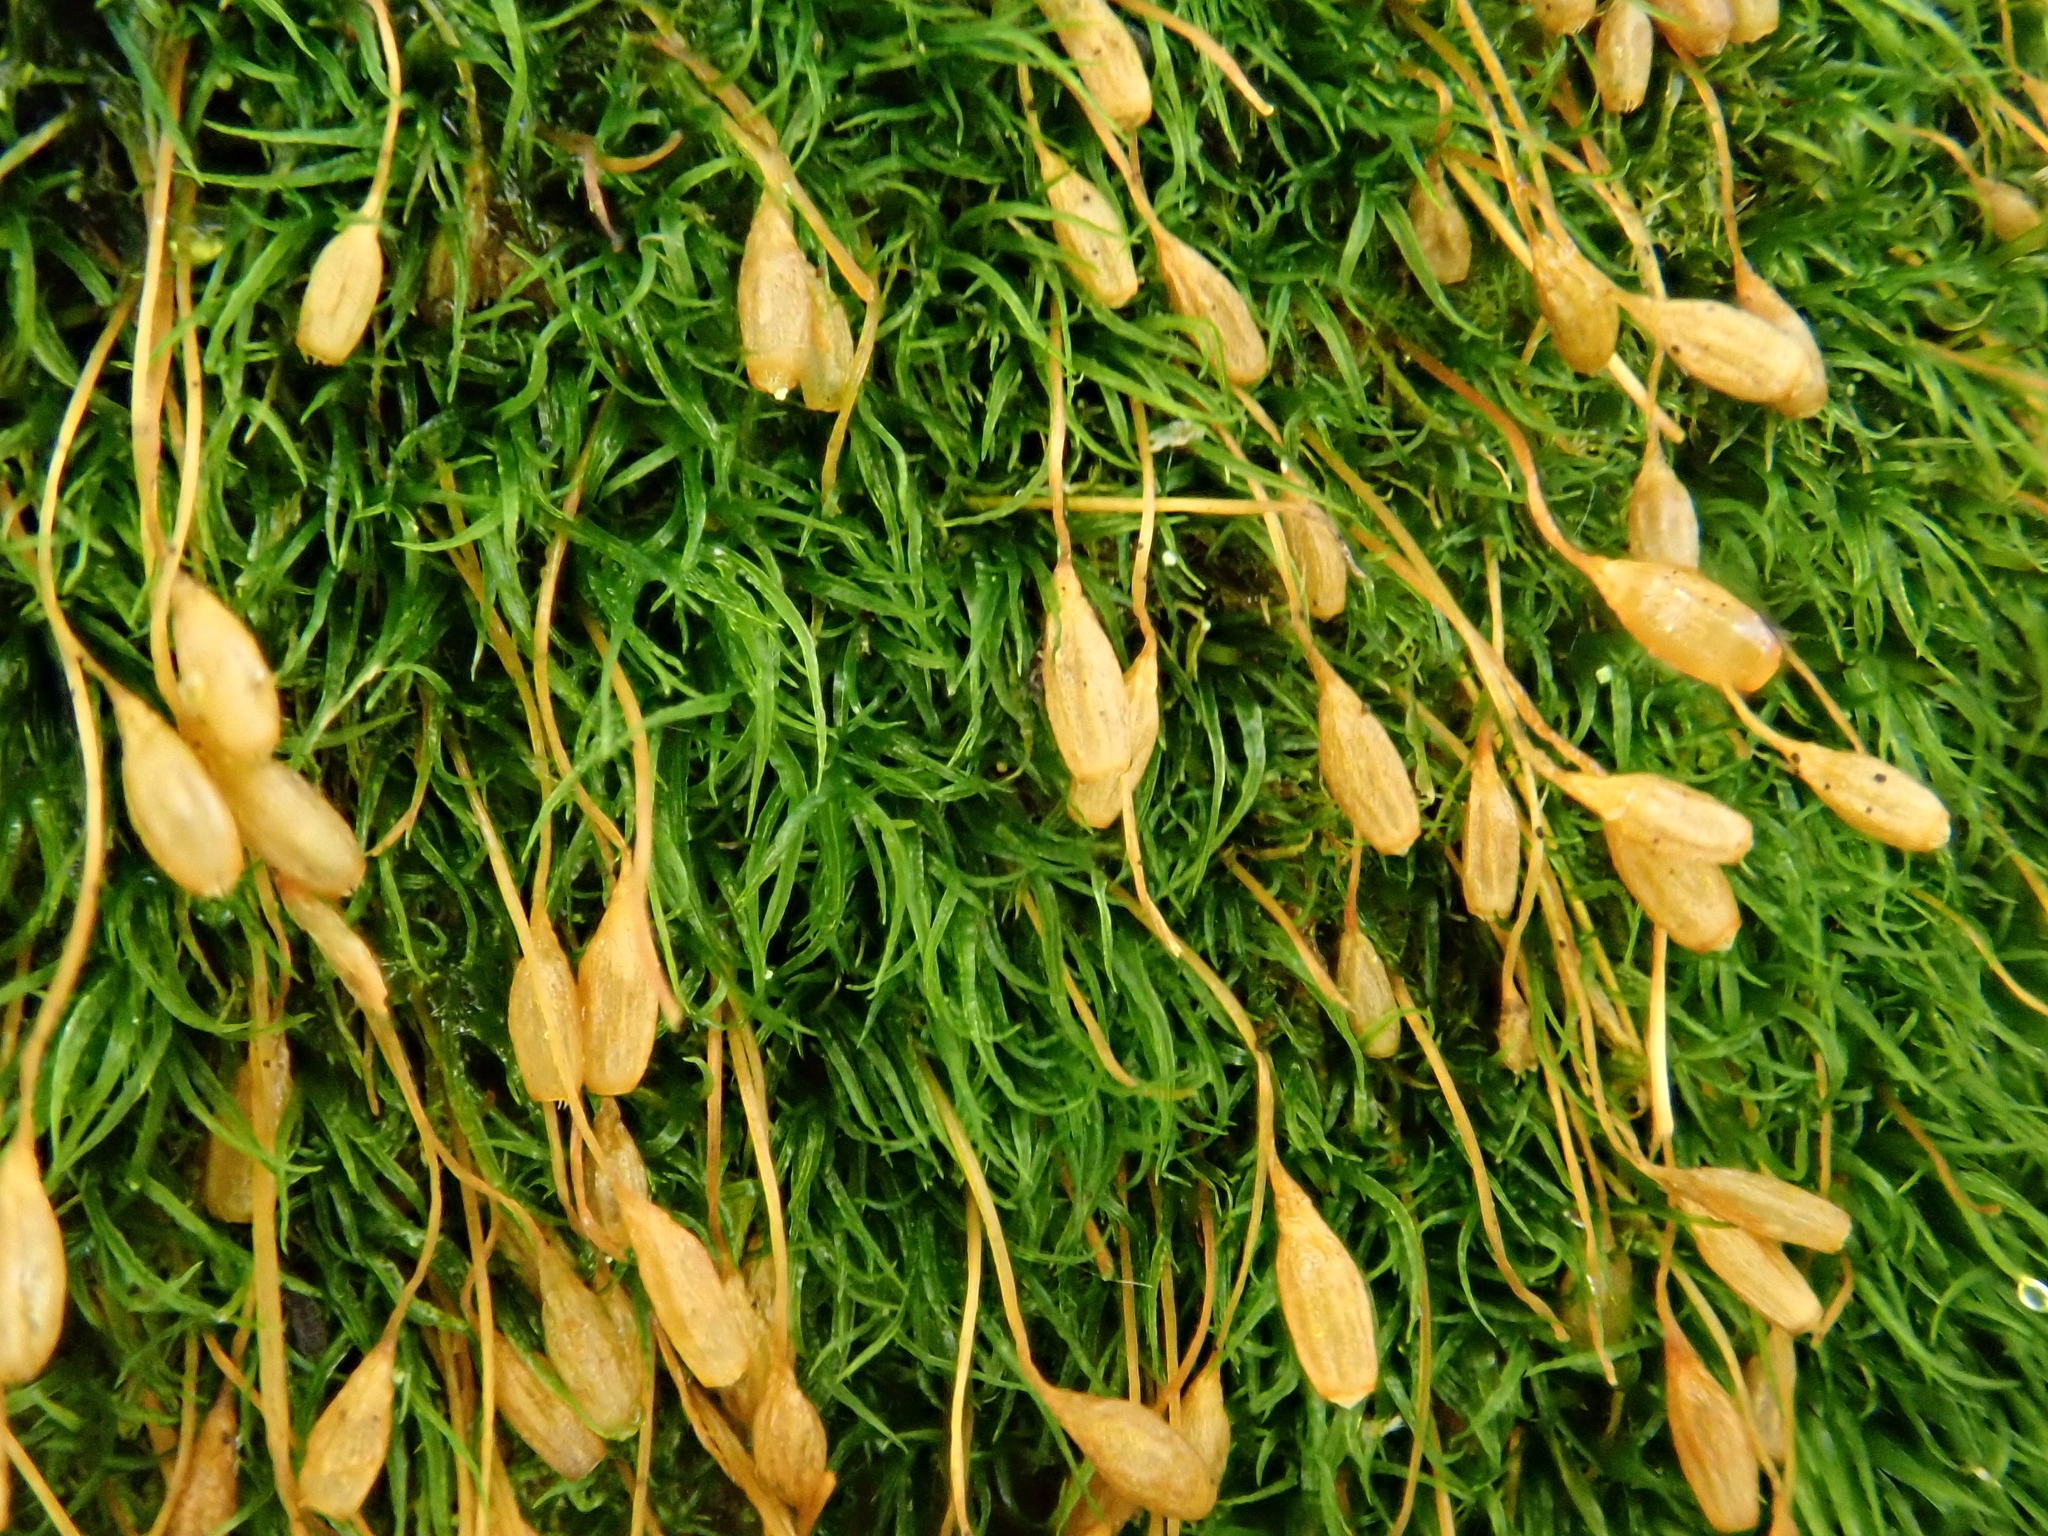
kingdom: Plantae
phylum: Bryophyta
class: Bryopsida
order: Orthodontiales
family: Orthodontiaceae
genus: Orthodontium
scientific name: Orthodontium lineare
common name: Cape thread-moss
